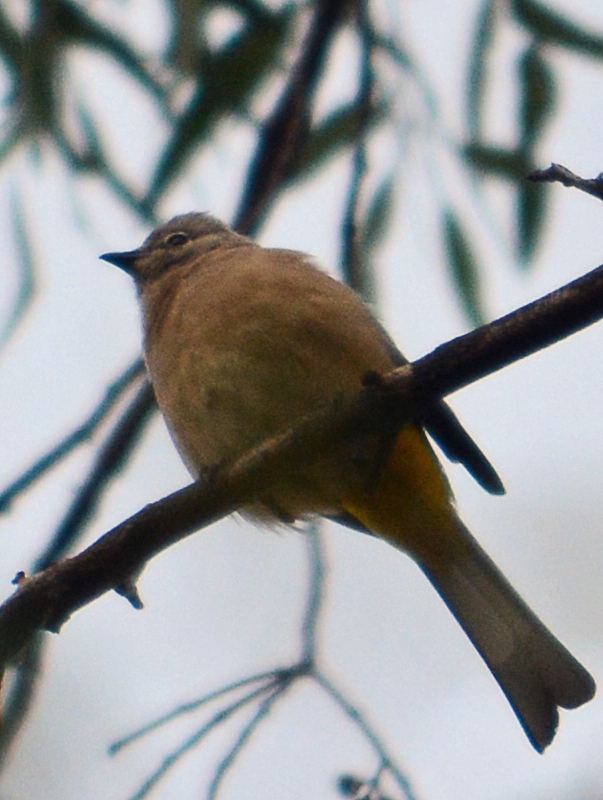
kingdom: Animalia
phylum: Chordata
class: Aves
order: Passeriformes
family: Ptilogonatidae
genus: Ptilogonys
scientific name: Ptilogonys cinereus
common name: Gray silky-flycatcher
